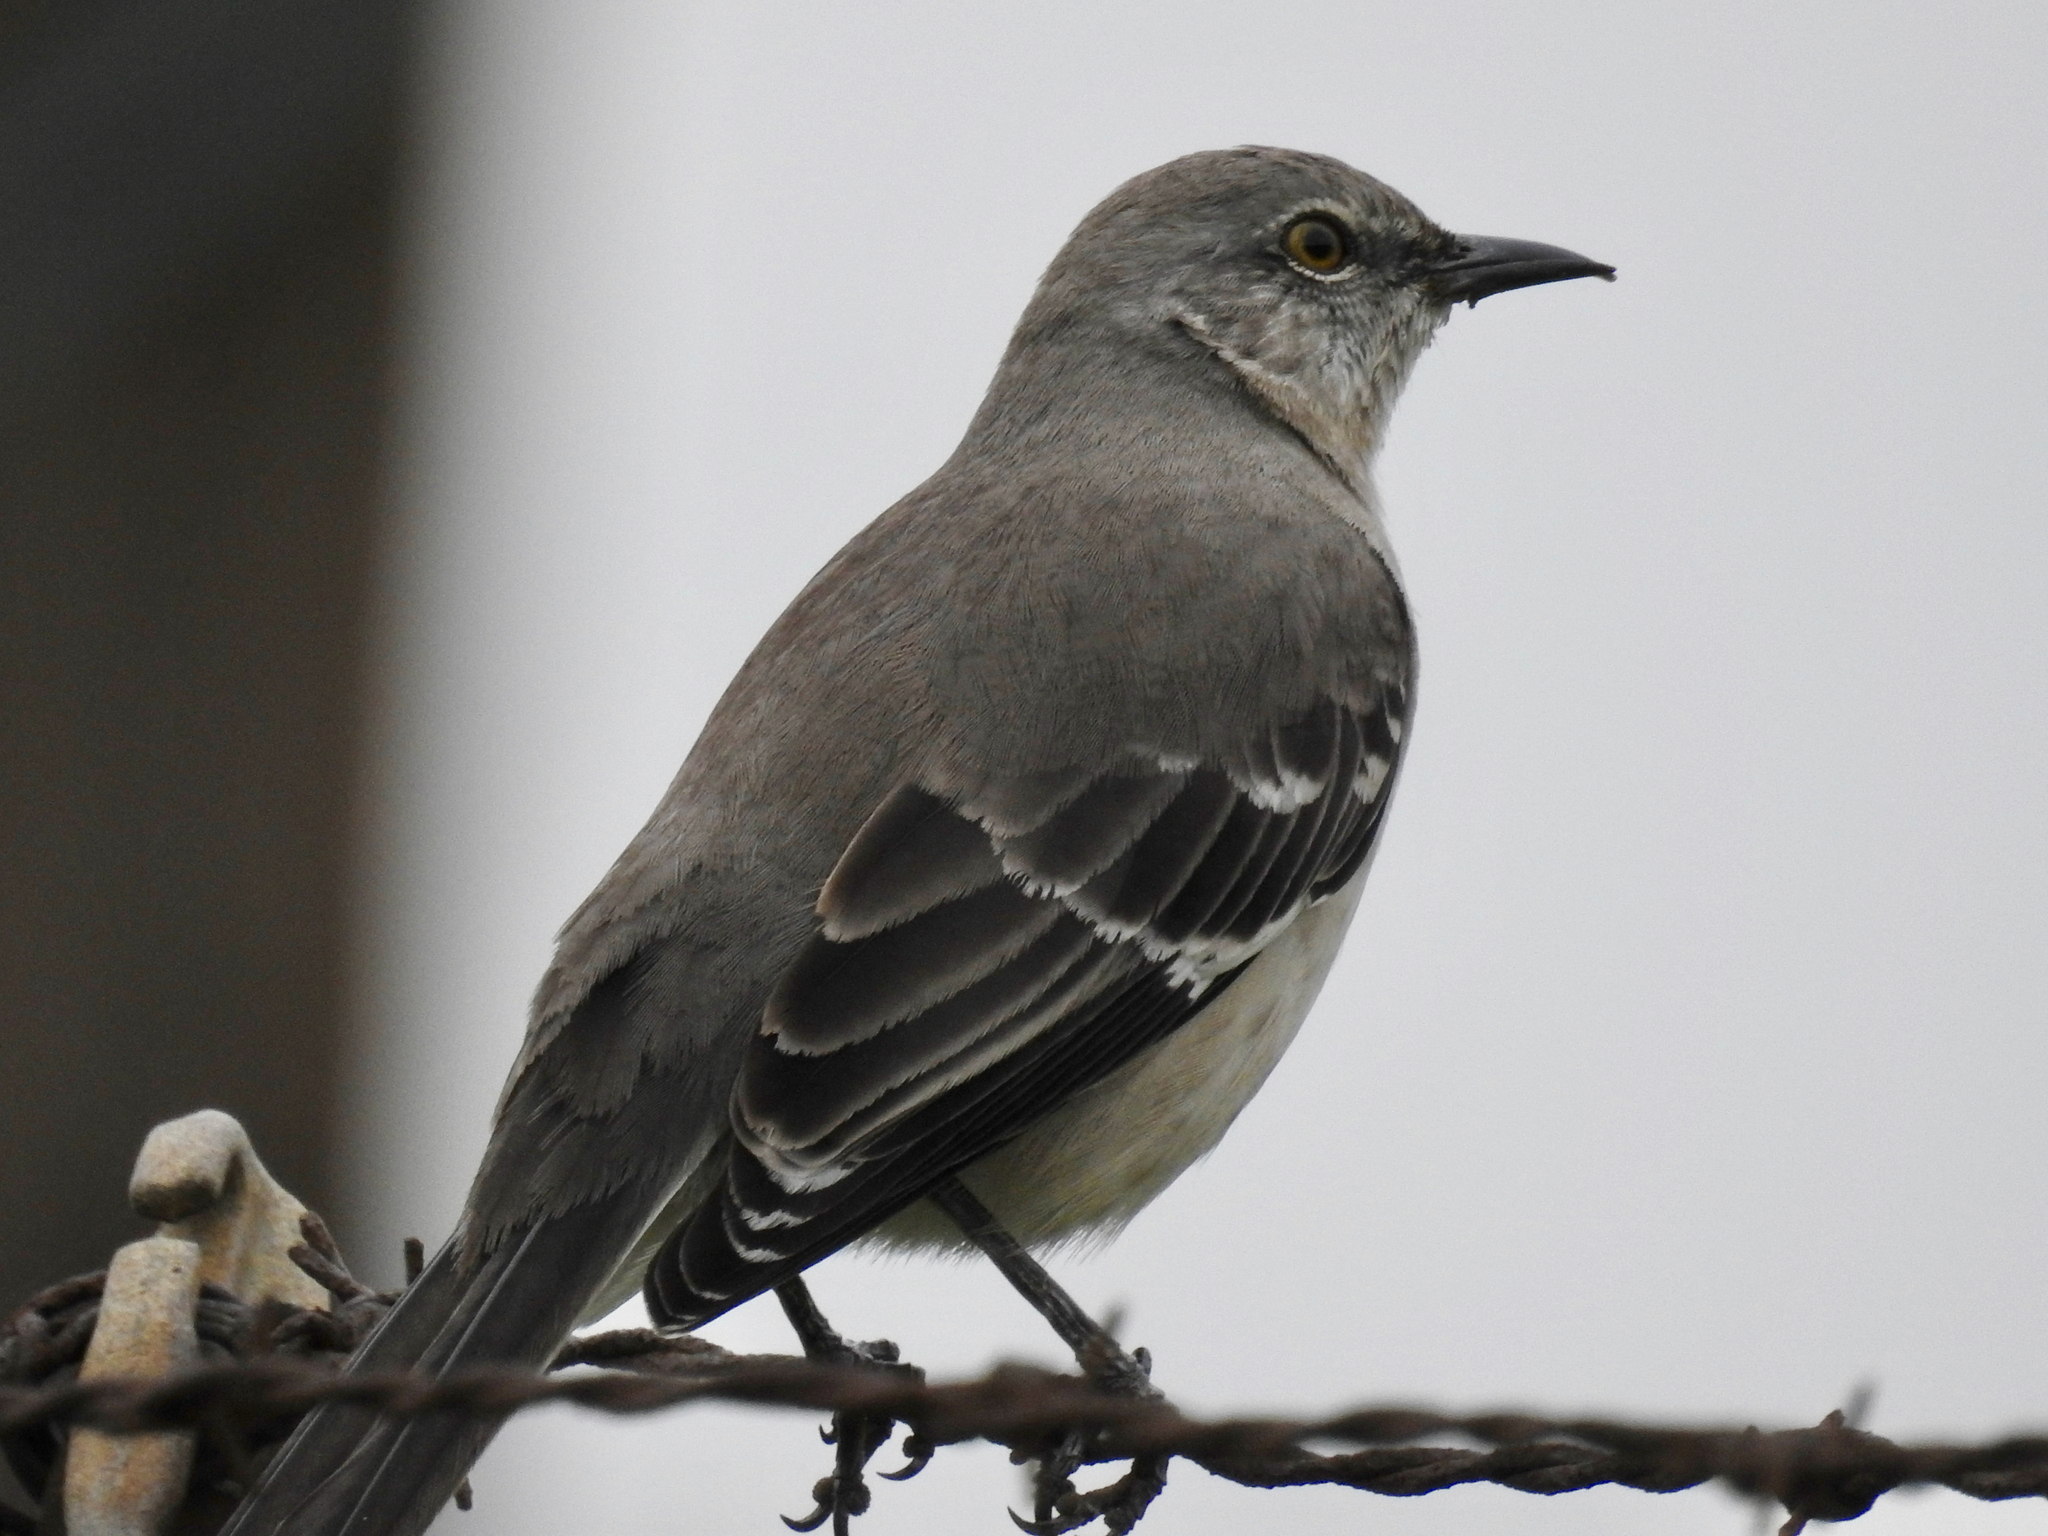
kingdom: Animalia
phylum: Chordata
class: Aves
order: Passeriformes
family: Mimidae
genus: Mimus
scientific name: Mimus polyglottos
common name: Northern mockingbird
